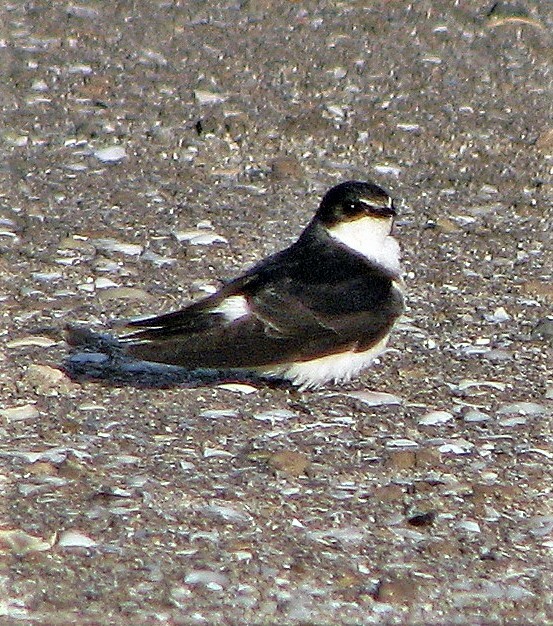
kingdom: Animalia
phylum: Chordata
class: Aves
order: Passeriformes
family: Hirundinidae
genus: Tachycineta
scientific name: Tachycineta leucorrhoa
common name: White-rumped swallow
